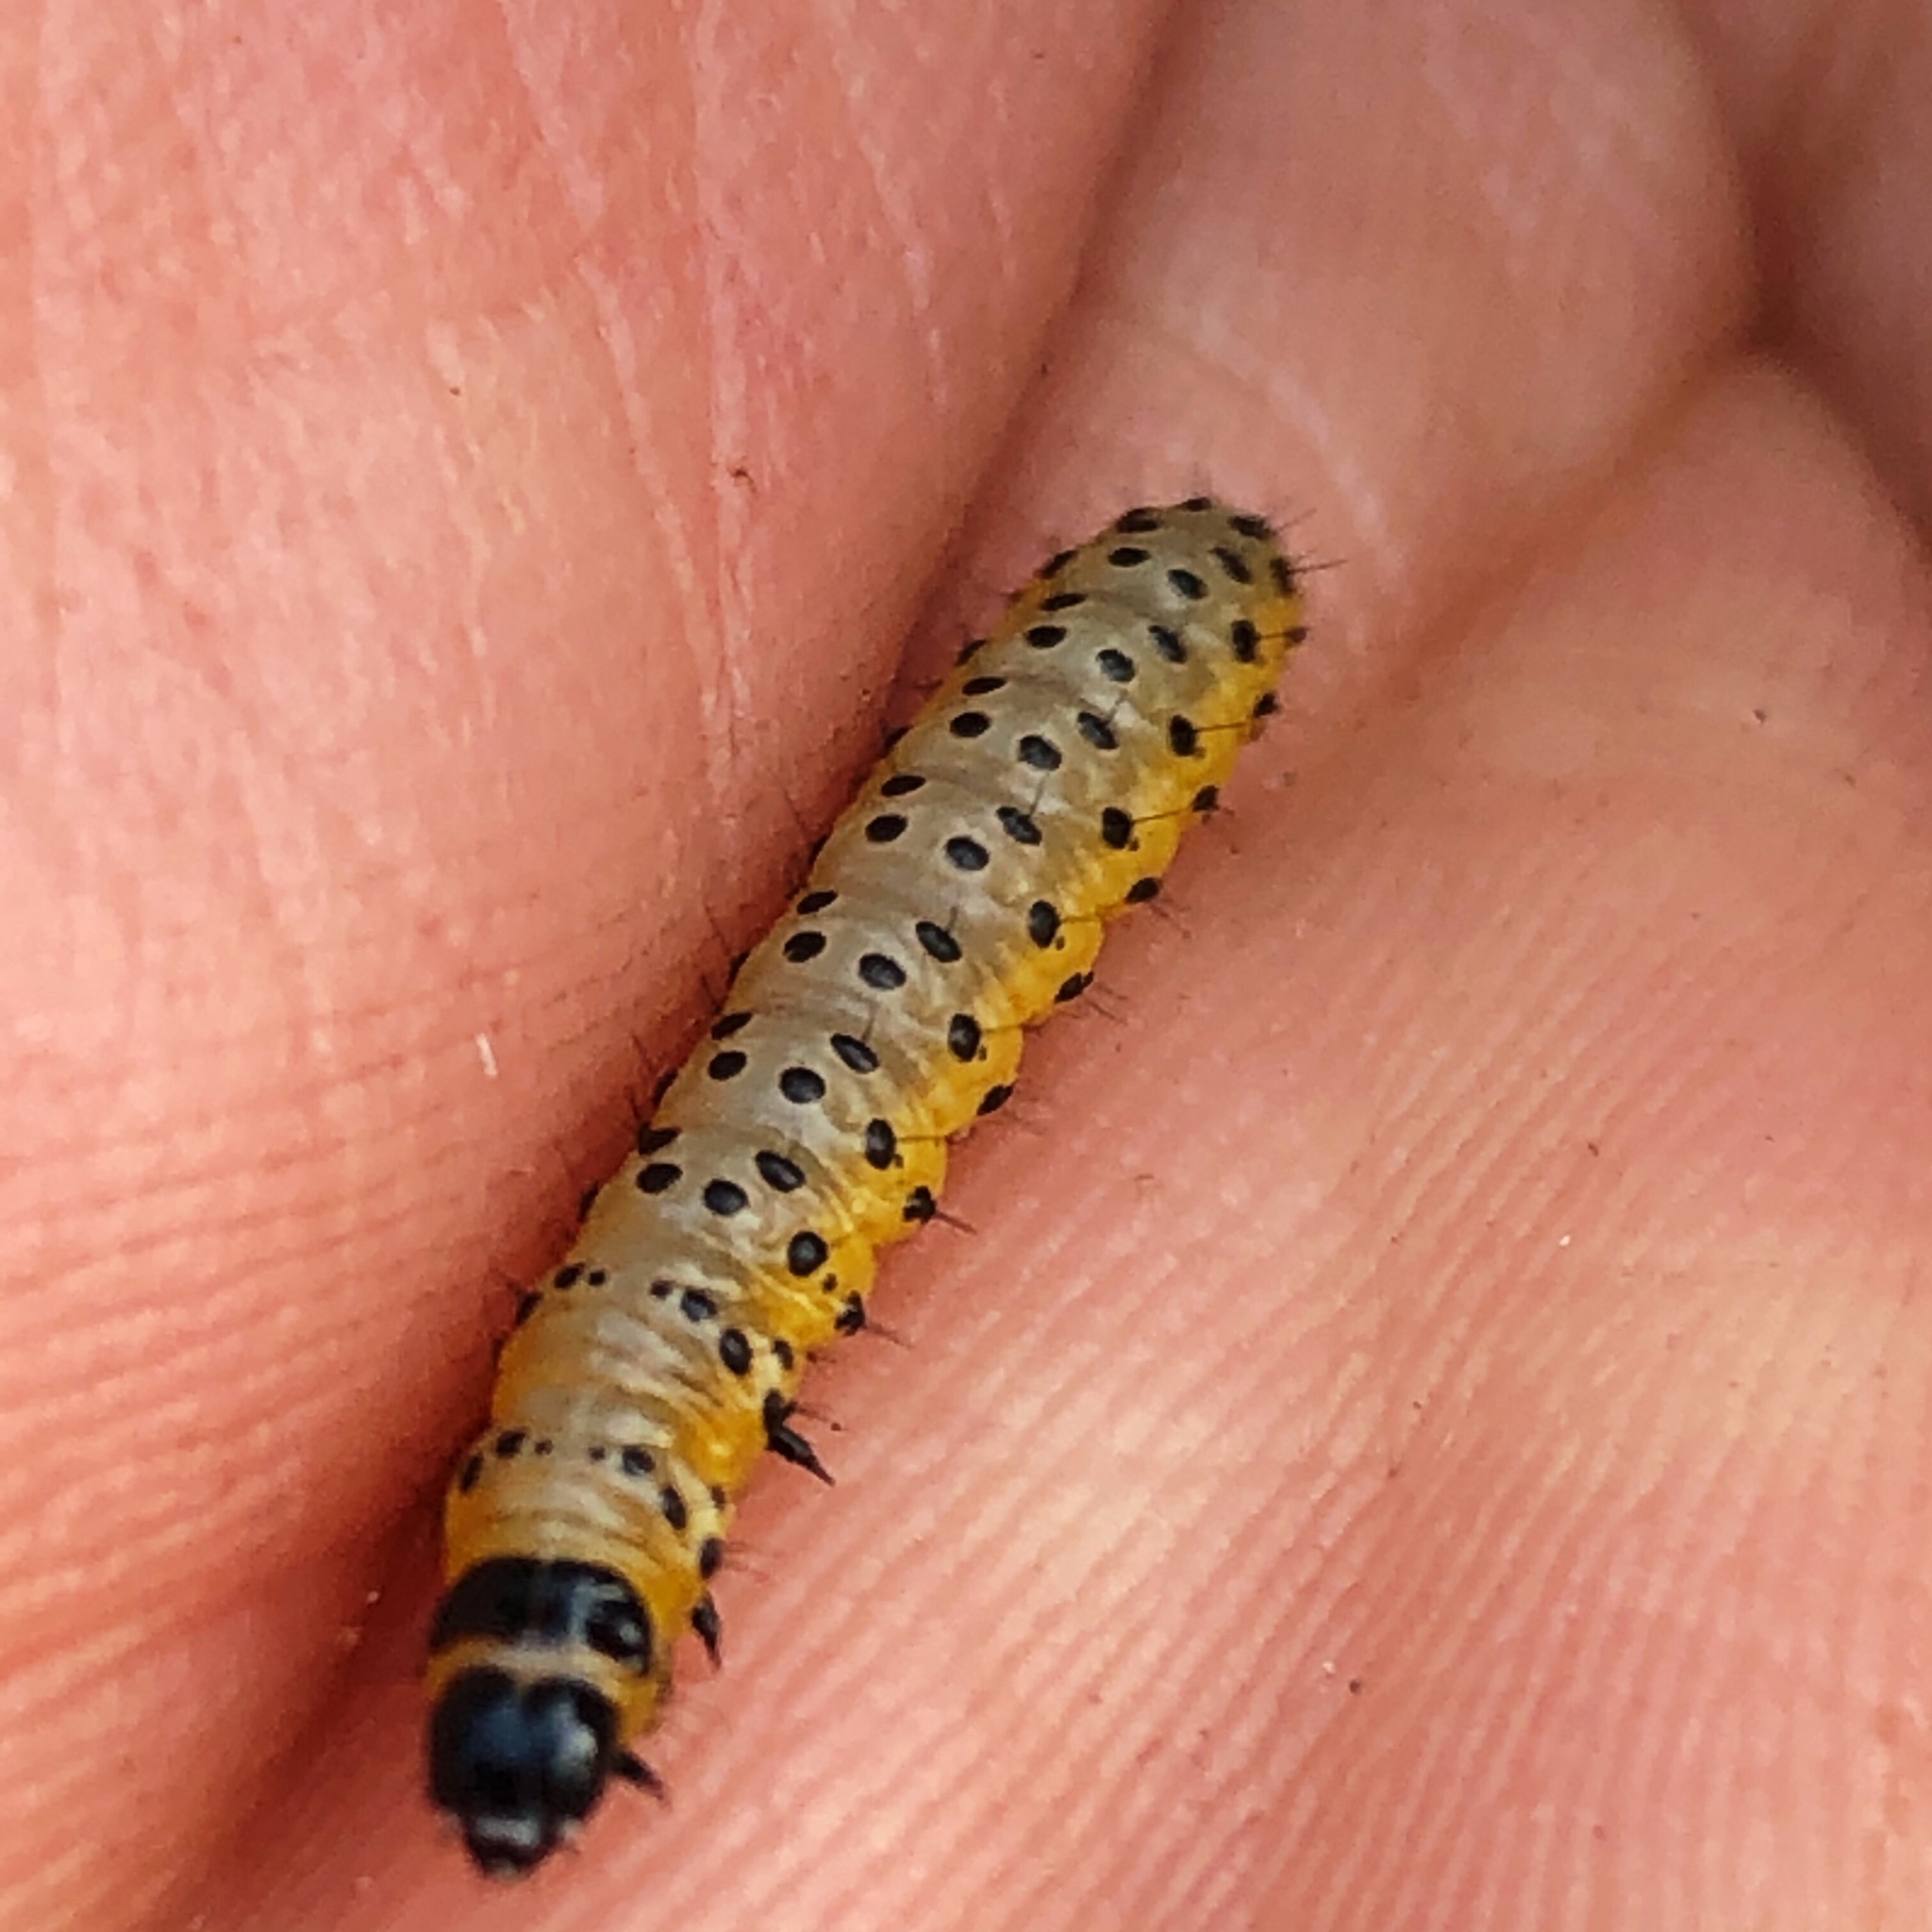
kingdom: Animalia
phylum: Arthropoda
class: Insecta
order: Lepidoptera
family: Depressariidae
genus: Depressaria
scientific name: Depressaria radiella
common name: Parsnip moth
